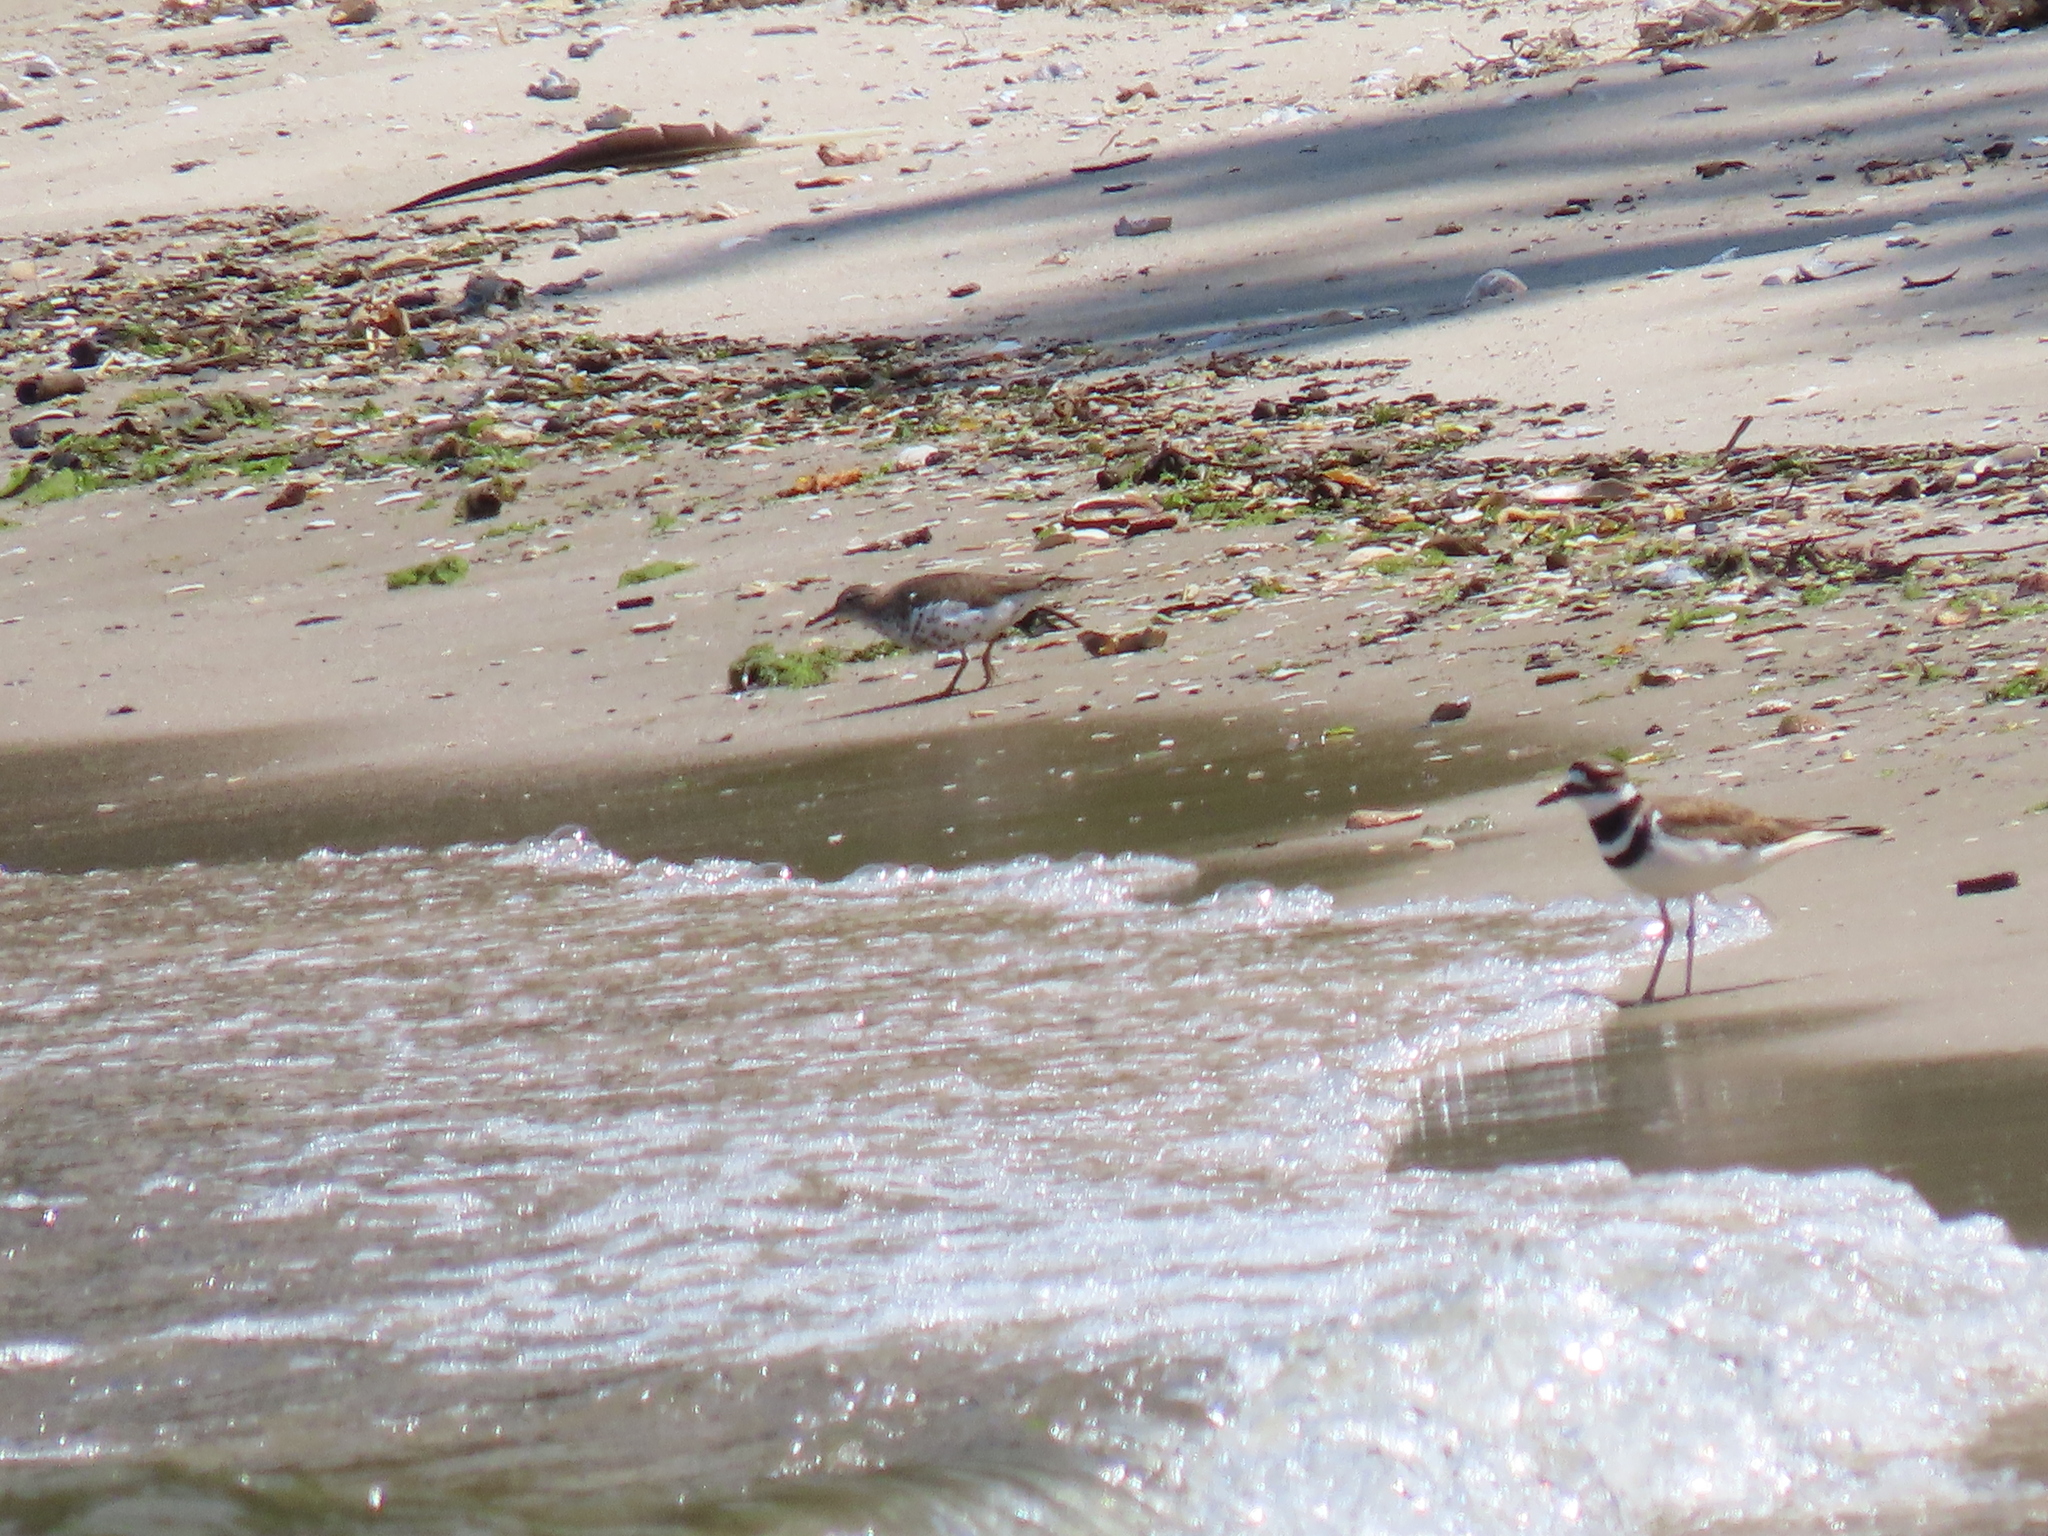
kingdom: Animalia
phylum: Chordata
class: Aves
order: Charadriiformes
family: Charadriidae
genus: Charadrius
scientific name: Charadrius vociferus
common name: Killdeer
